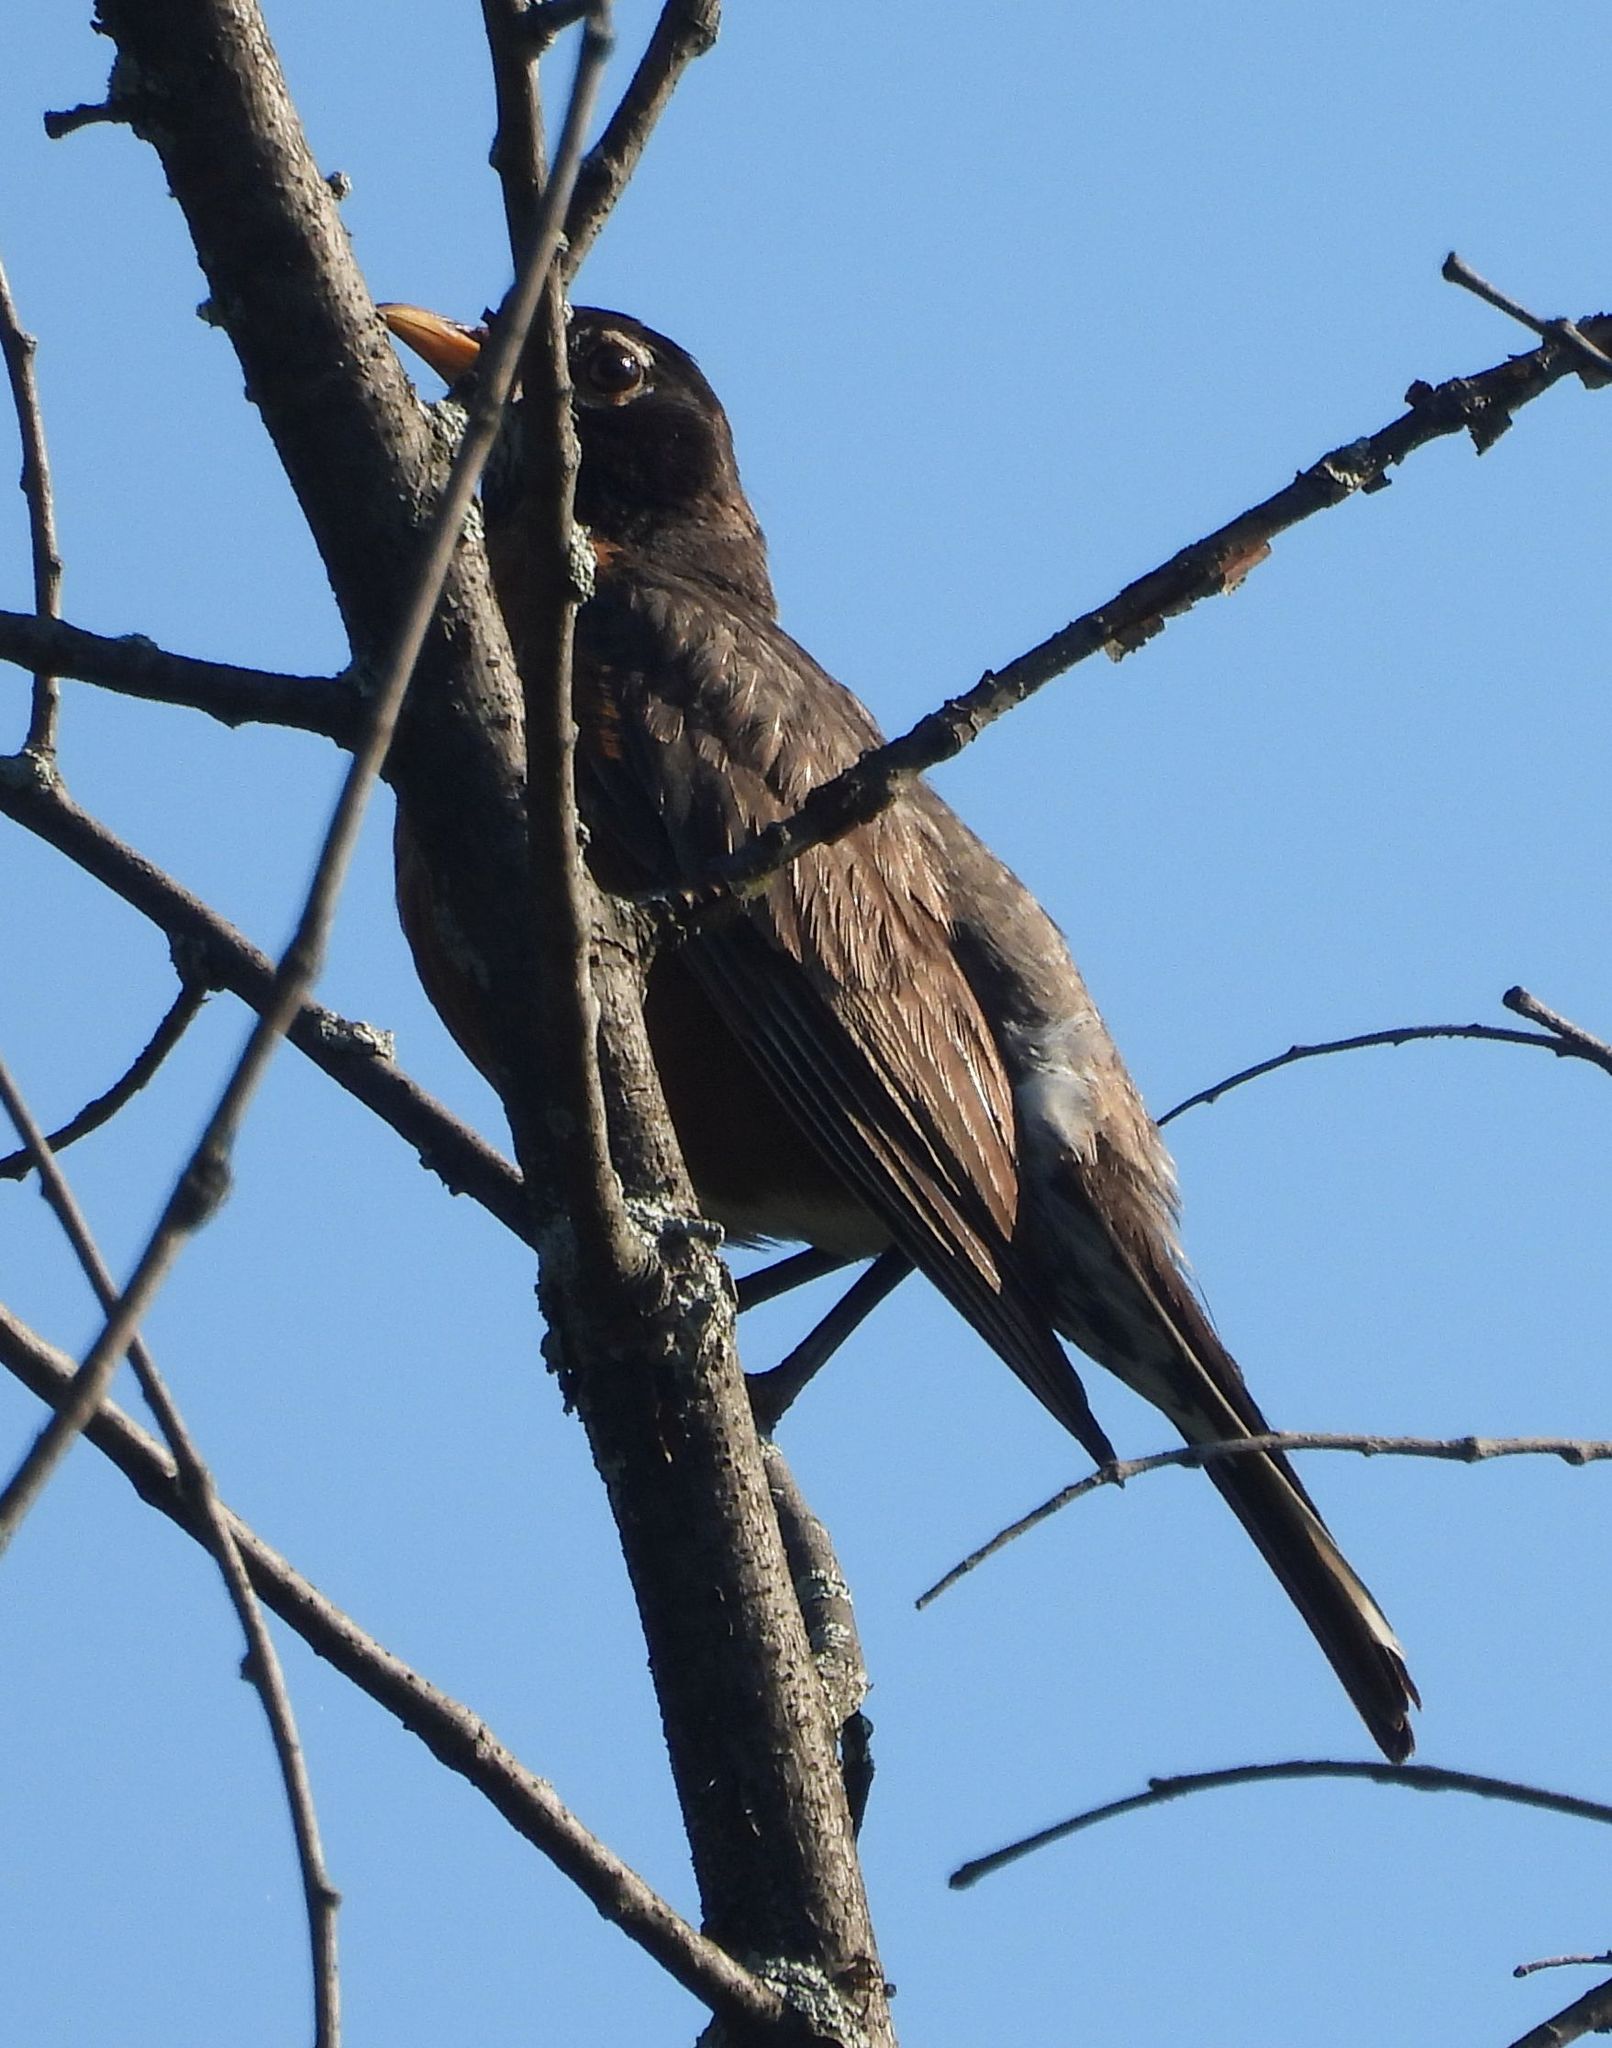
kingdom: Animalia
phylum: Chordata
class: Aves
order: Passeriformes
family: Turdidae
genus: Turdus
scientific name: Turdus migratorius
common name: American robin
